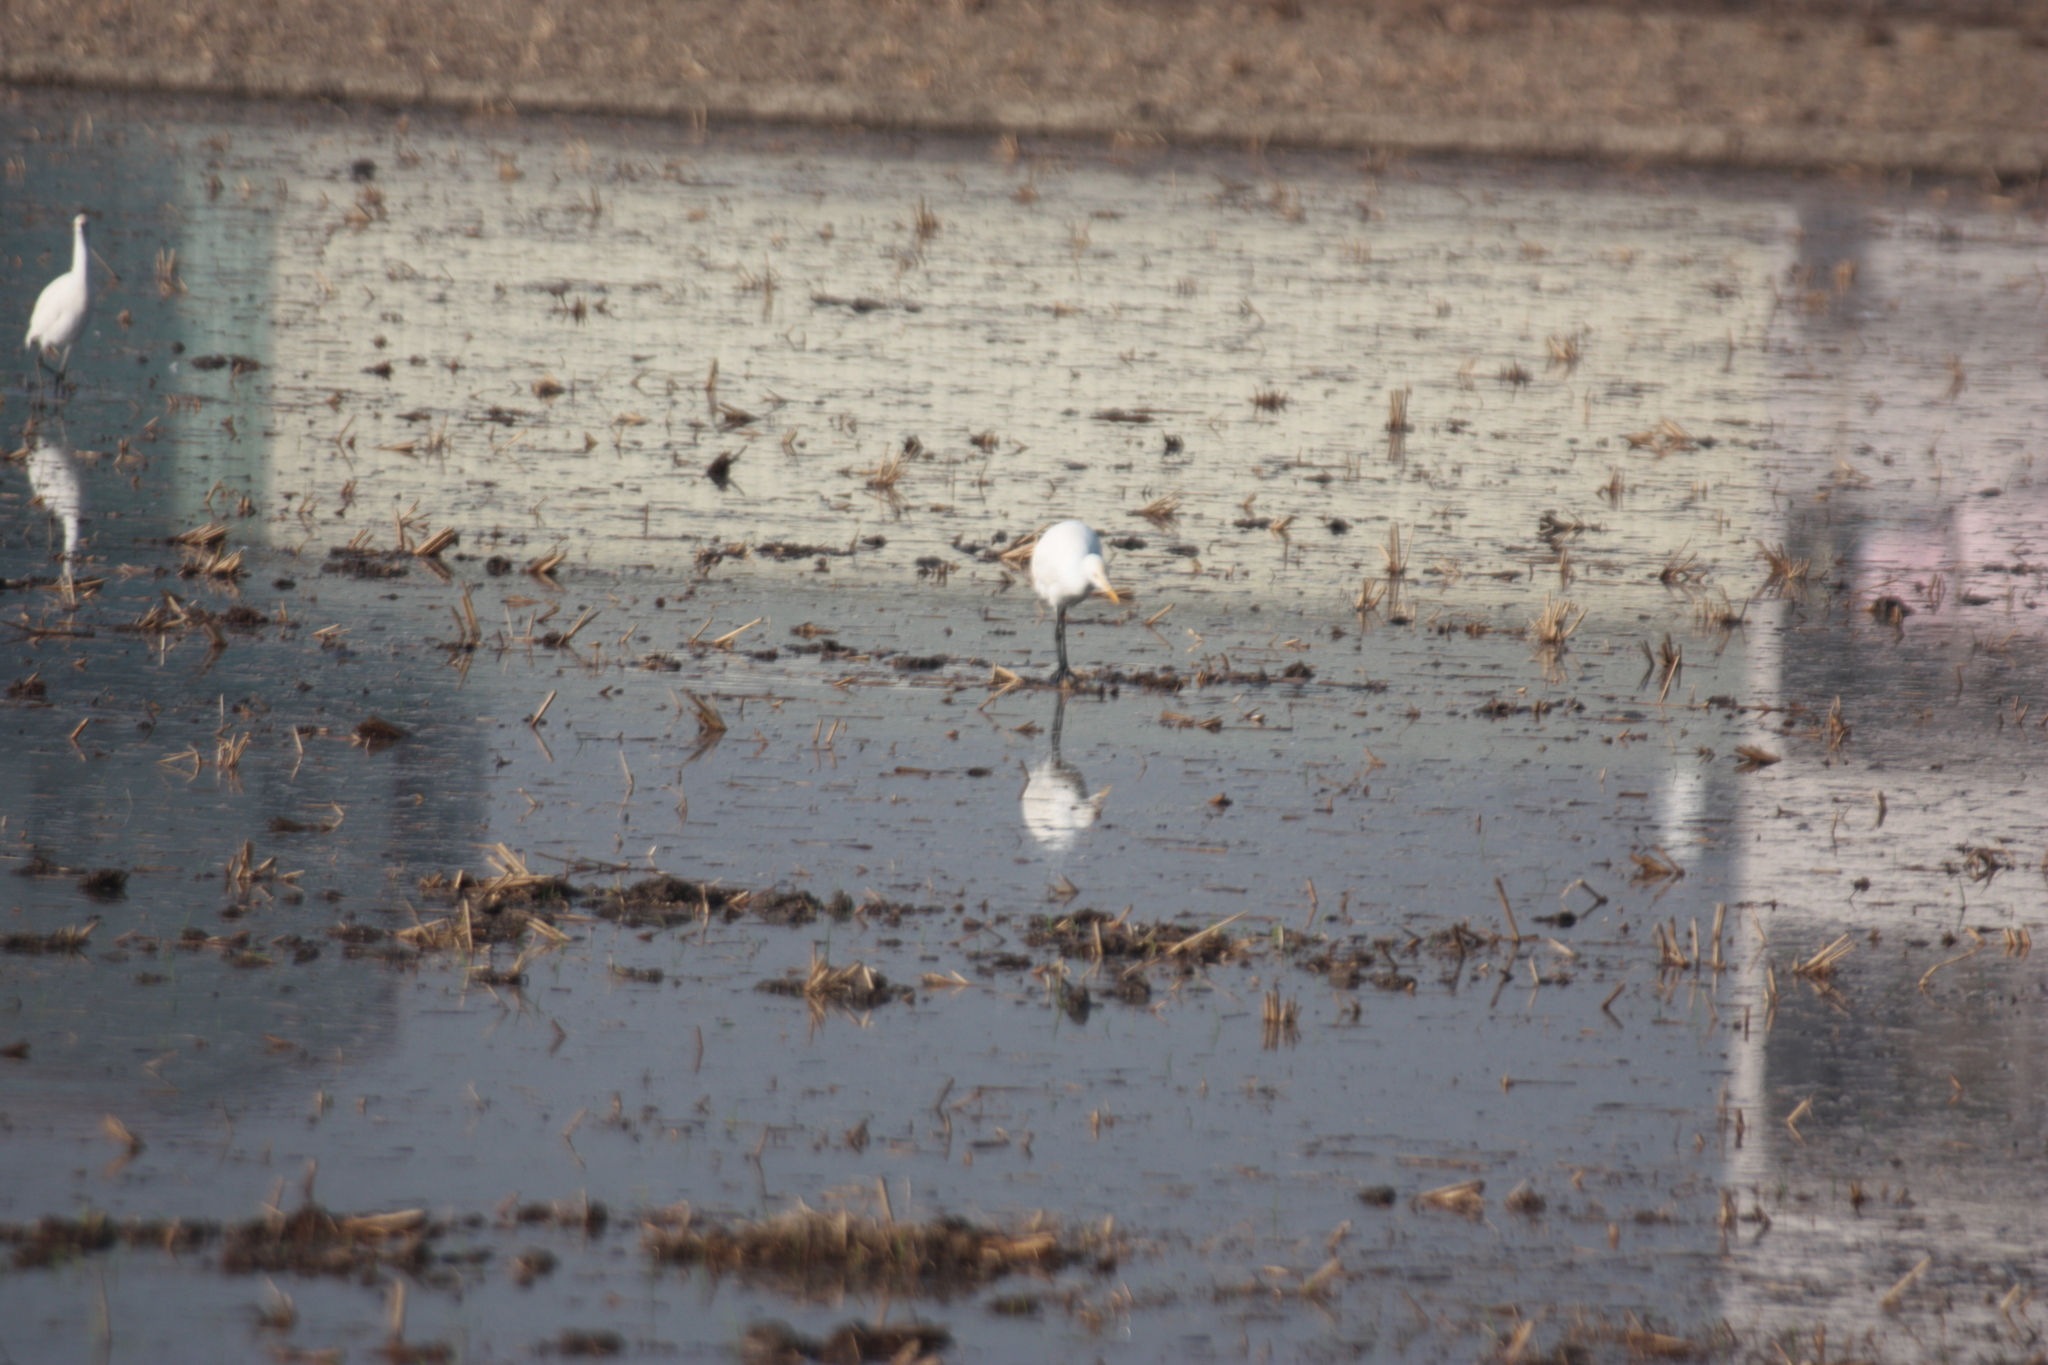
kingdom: Animalia
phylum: Chordata
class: Aves
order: Pelecaniformes
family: Ardeidae
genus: Bubulcus
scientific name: Bubulcus coromandus
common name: Eastern cattle egret
